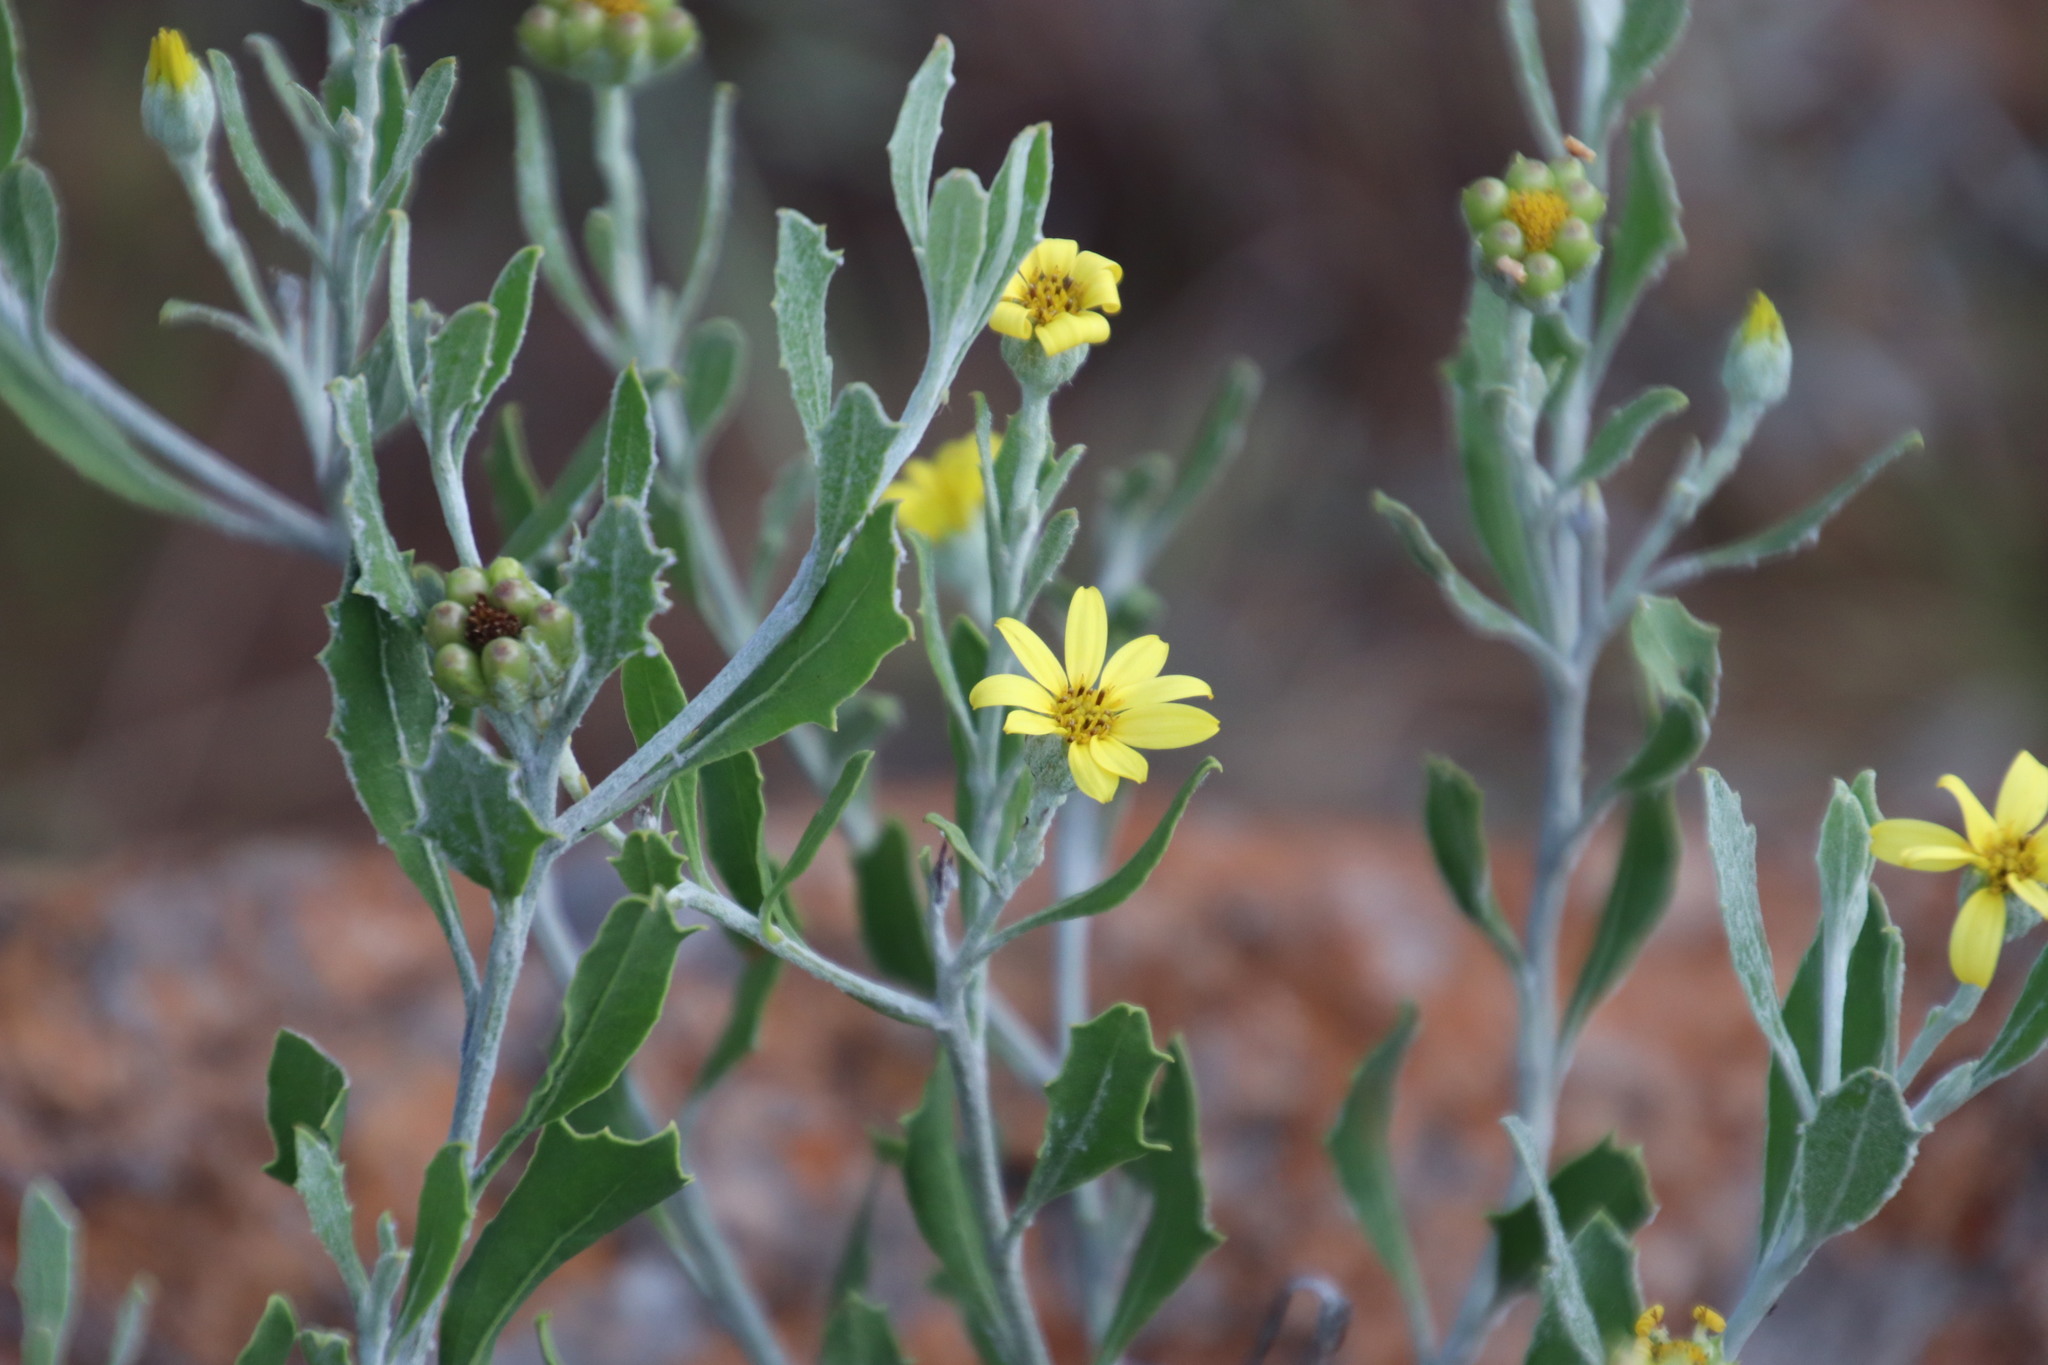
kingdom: Plantae
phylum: Tracheophyta
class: Magnoliopsida
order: Asterales
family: Asteraceae
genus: Osteospermum
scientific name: Osteospermum moniliferum
